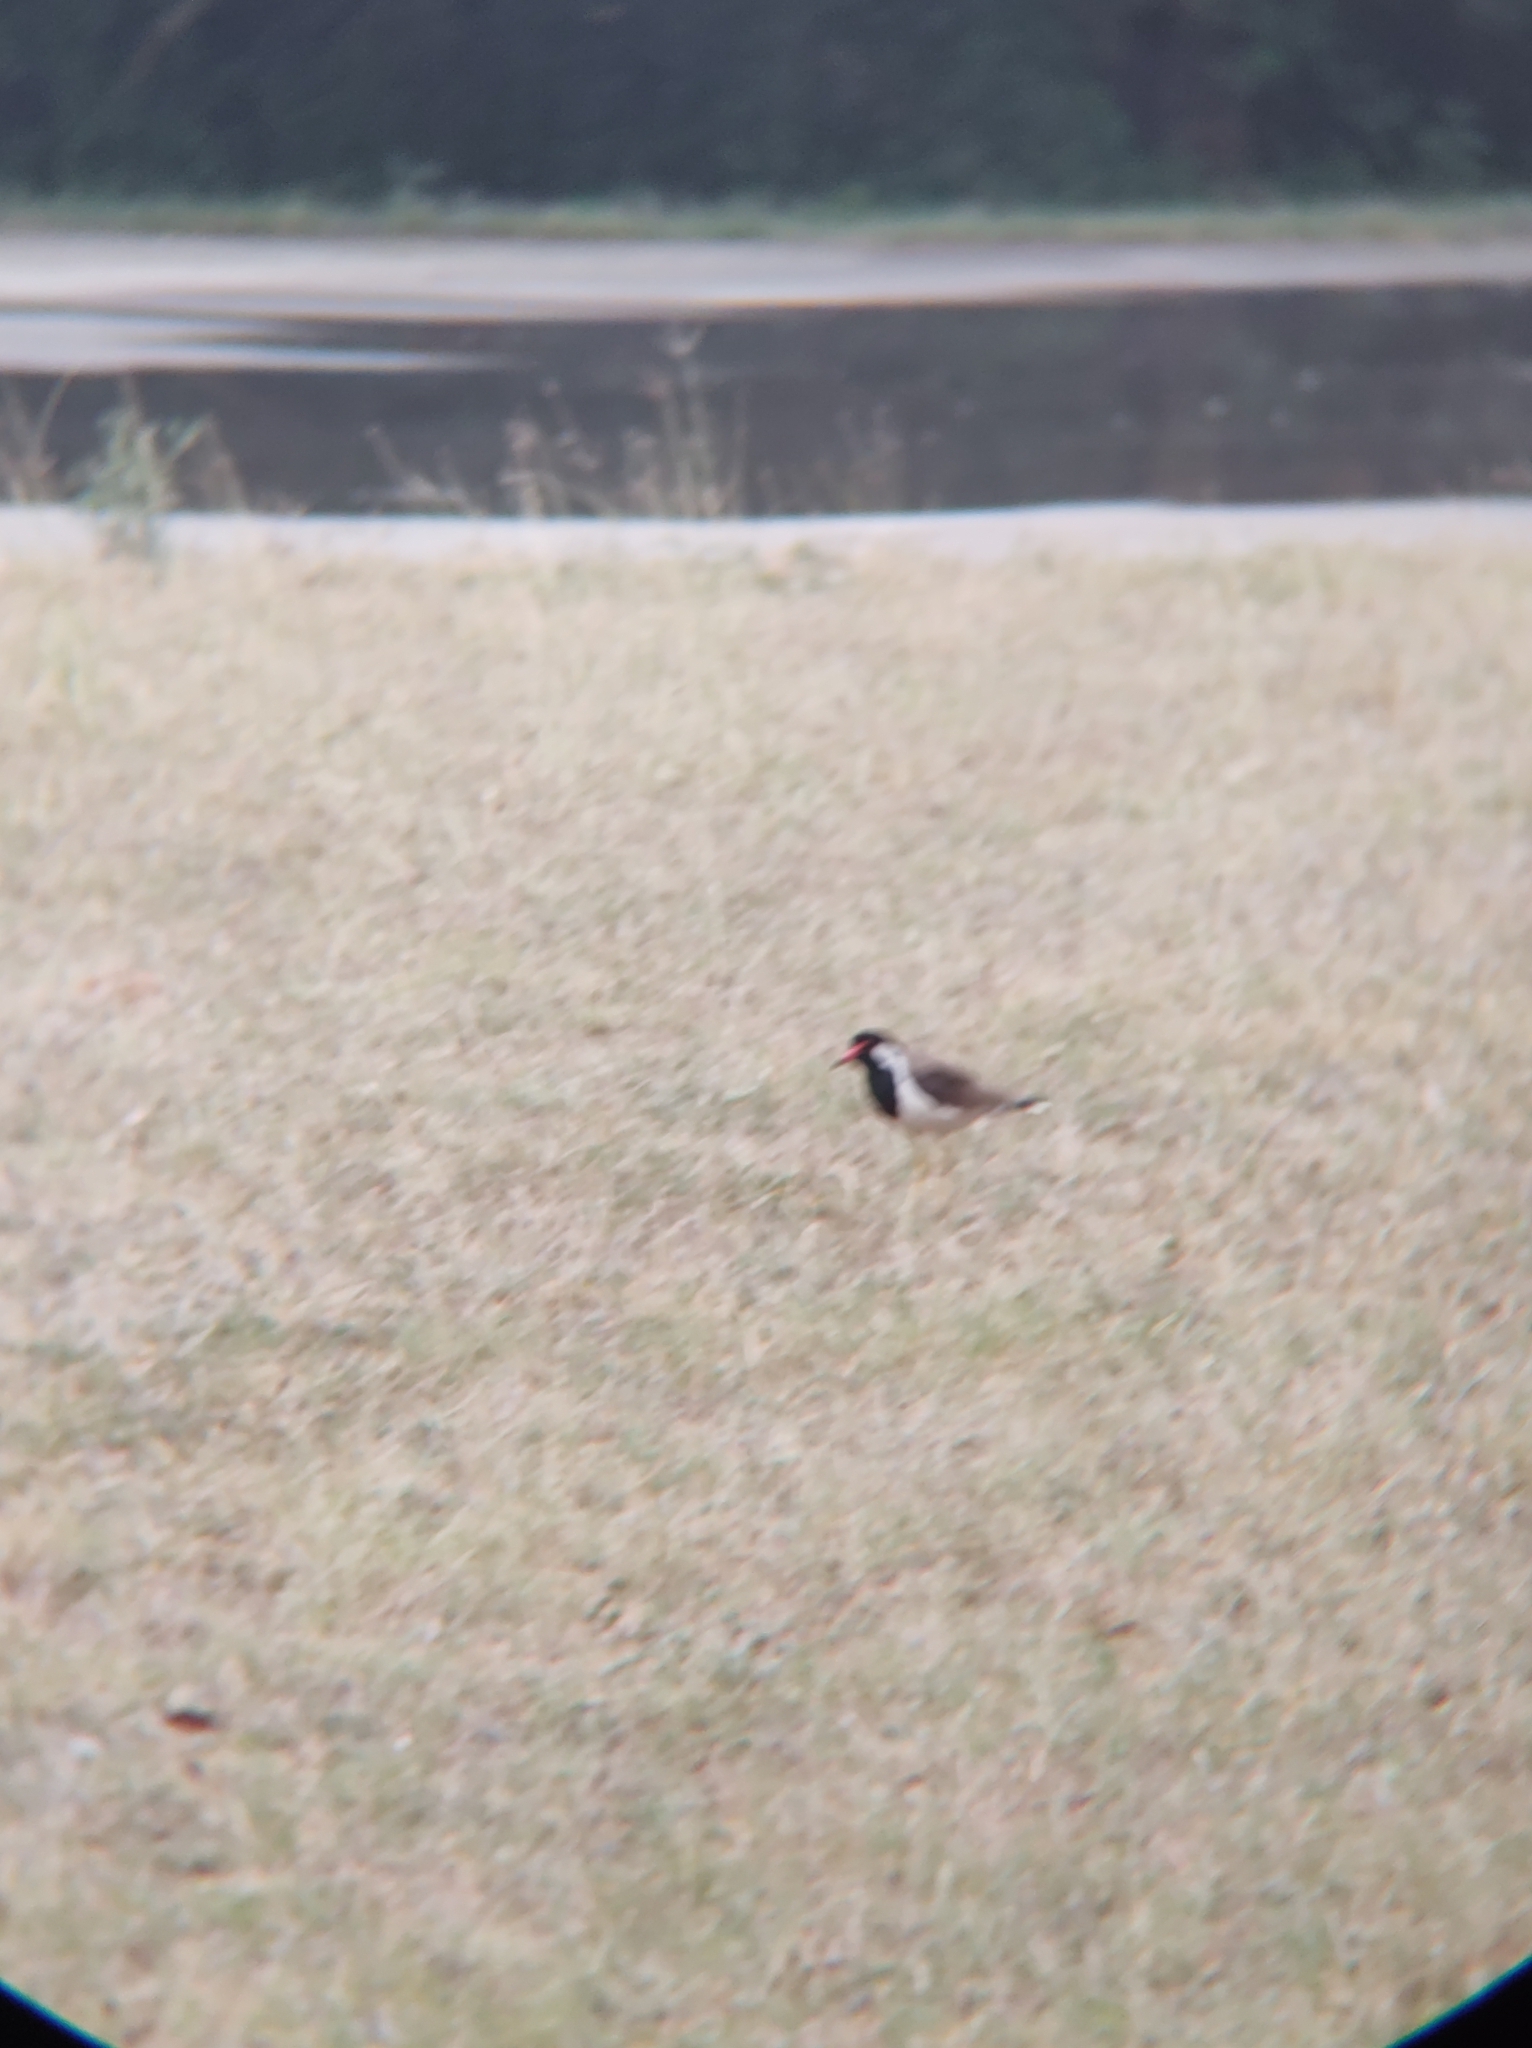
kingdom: Animalia
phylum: Chordata
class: Aves
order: Charadriiformes
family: Charadriidae
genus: Vanellus
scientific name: Vanellus indicus
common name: Red-wattled lapwing
